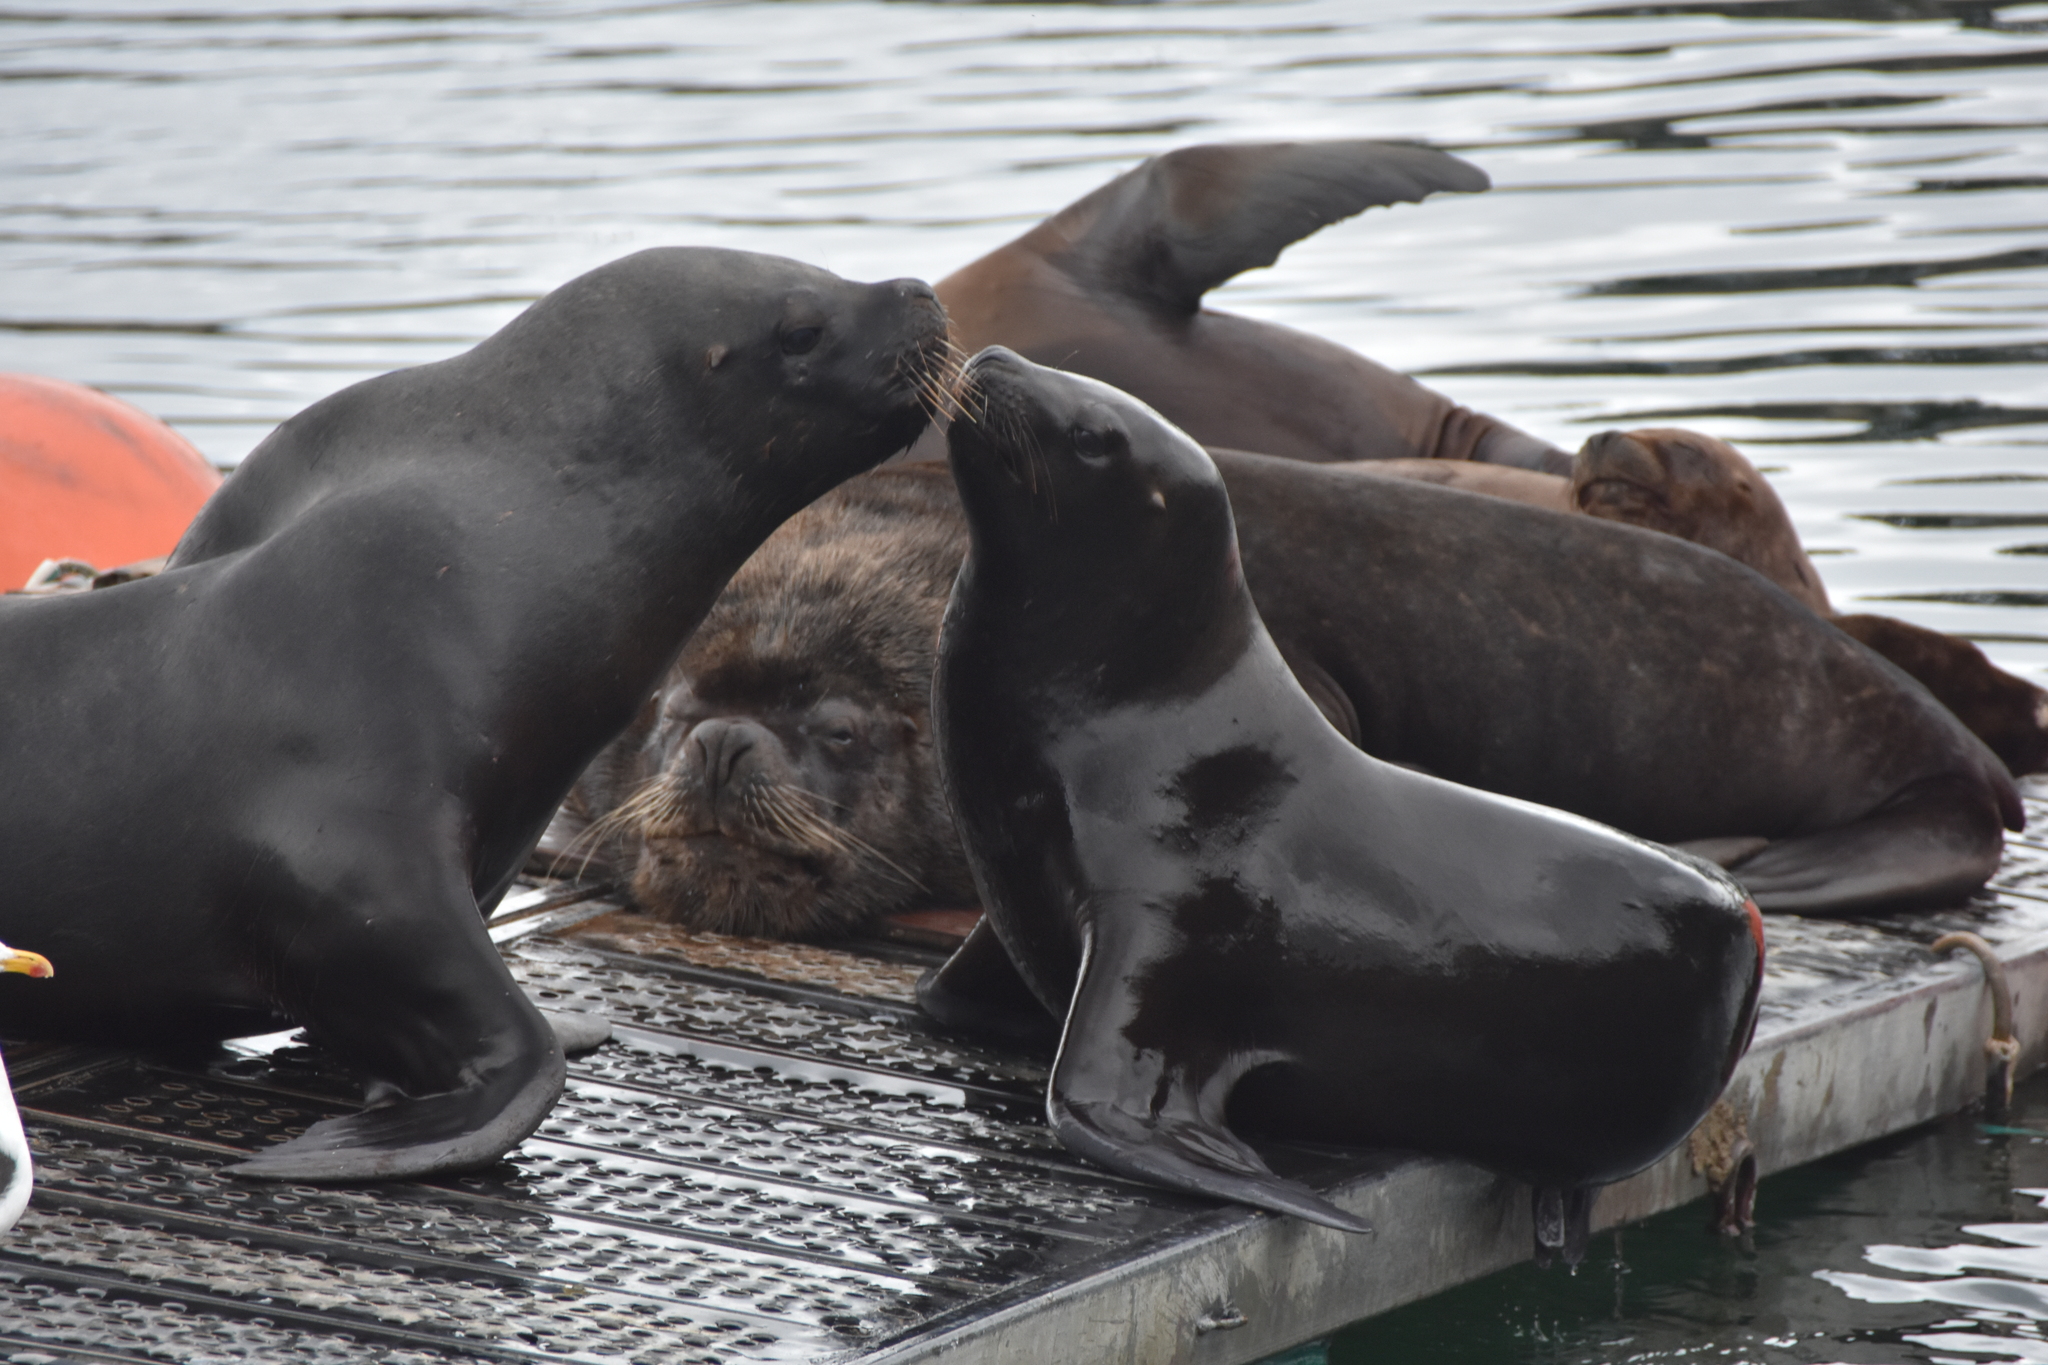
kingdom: Animalia
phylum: Chordata
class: Mammalia
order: Carnivora
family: Otariidae
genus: Otaria
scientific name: Otaria byronia
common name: South american sea lion
